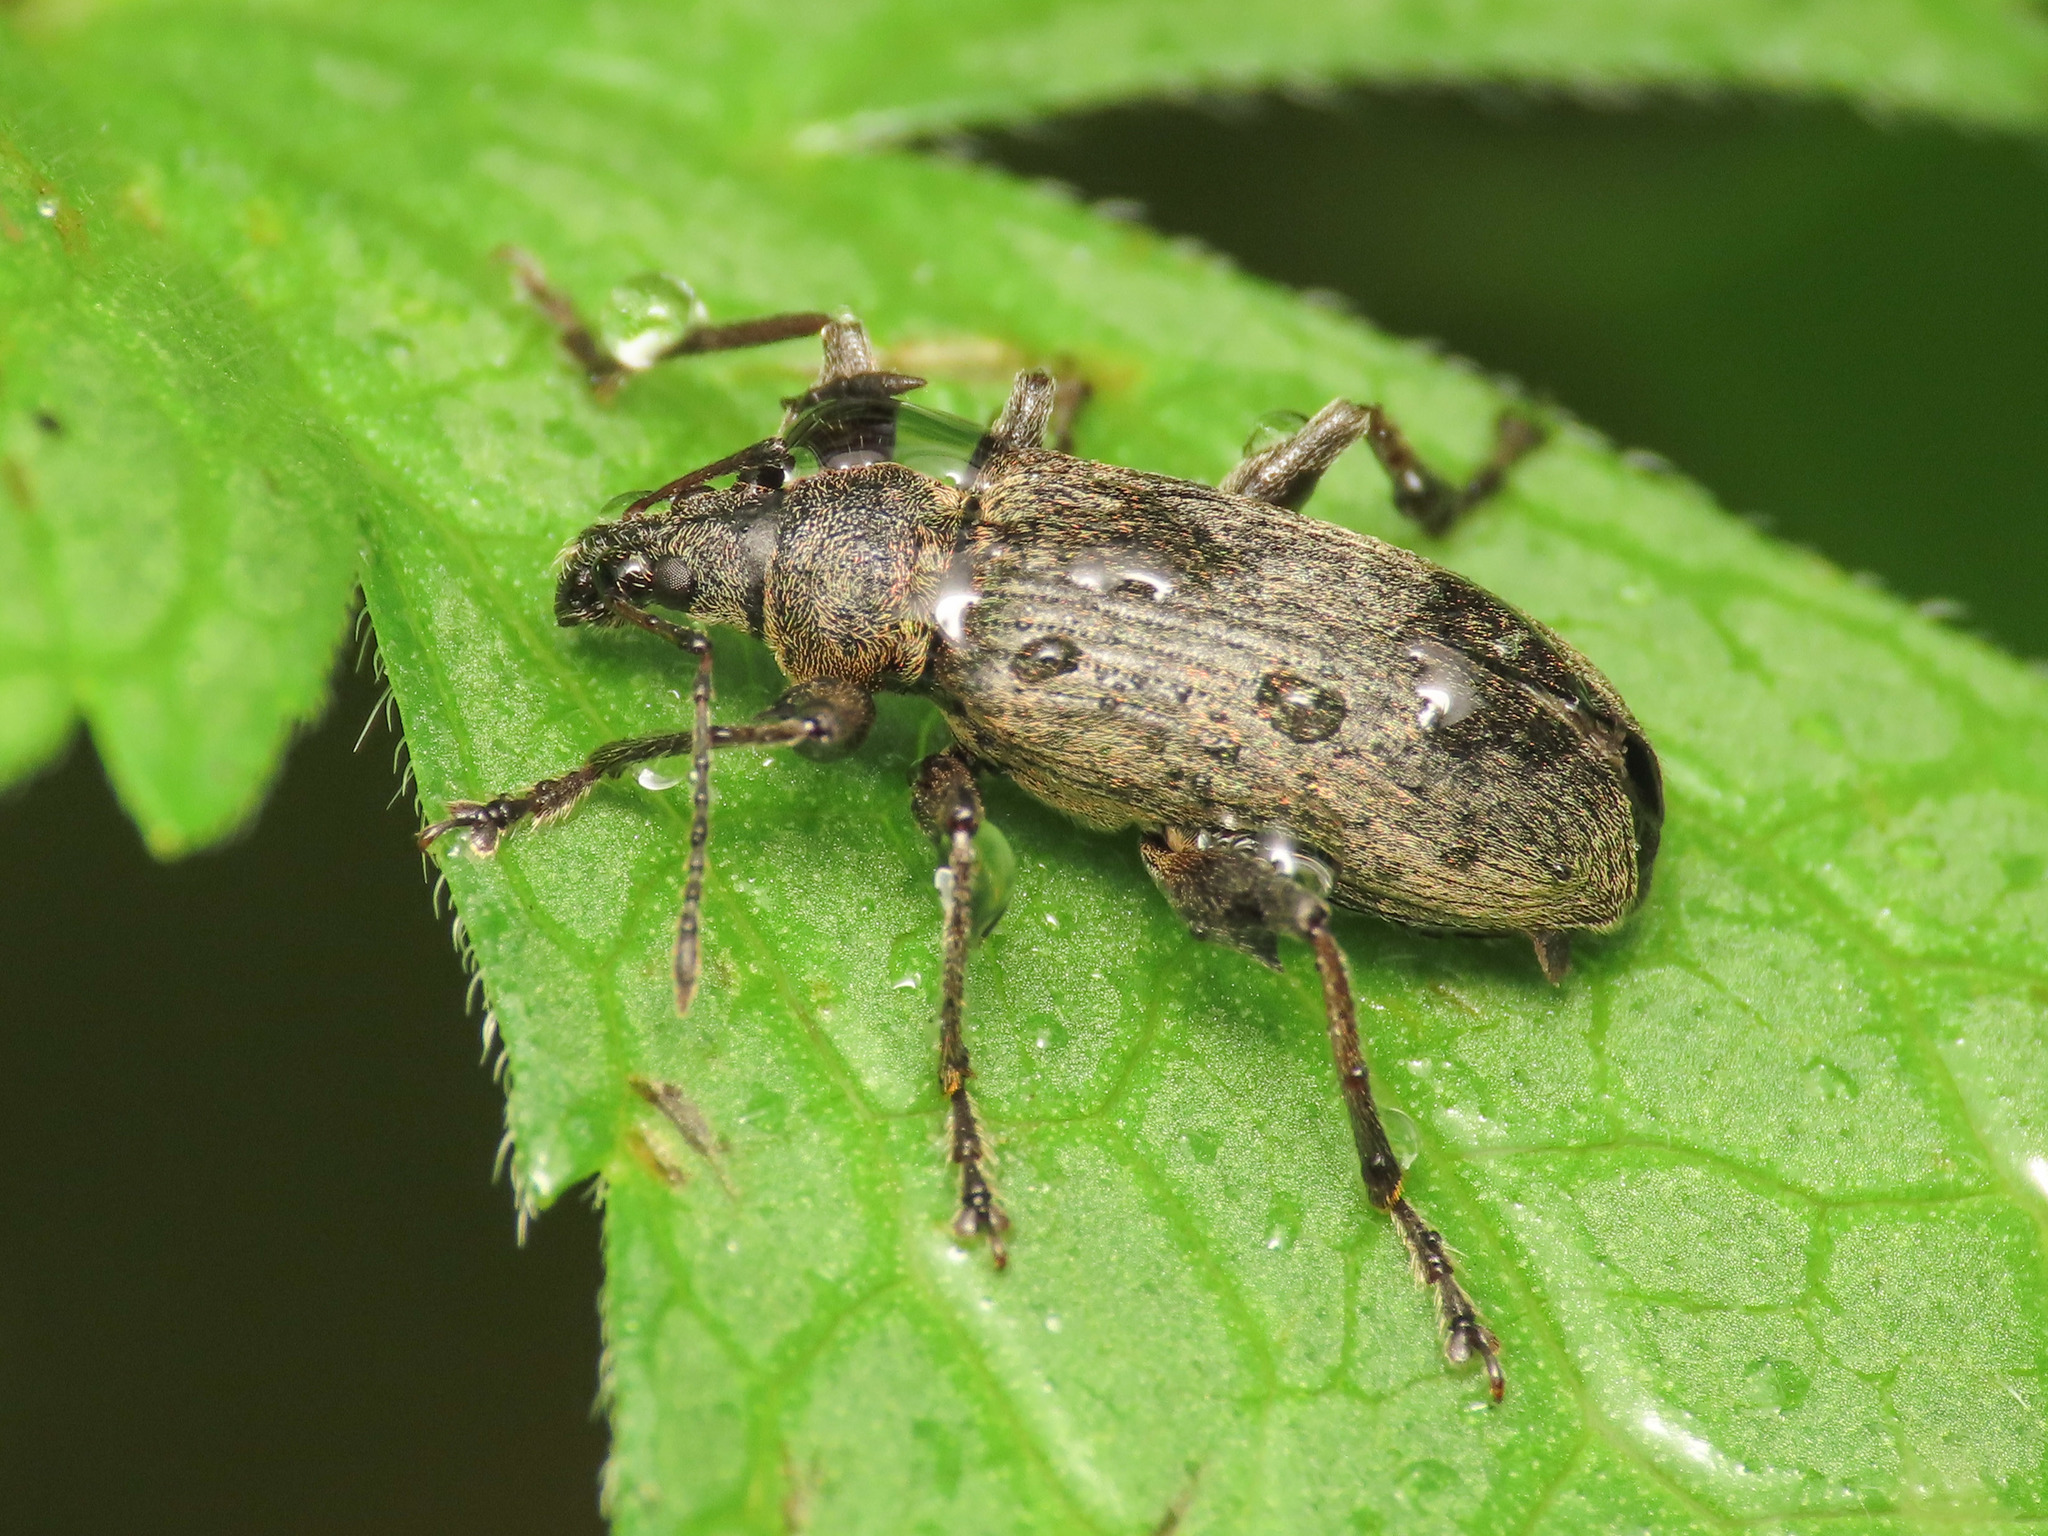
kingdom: Animalia
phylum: Arthropoda
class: Insecta
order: Coleoptera
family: Curculionidae
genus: Phyllobius
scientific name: Phyllobius glaucus
